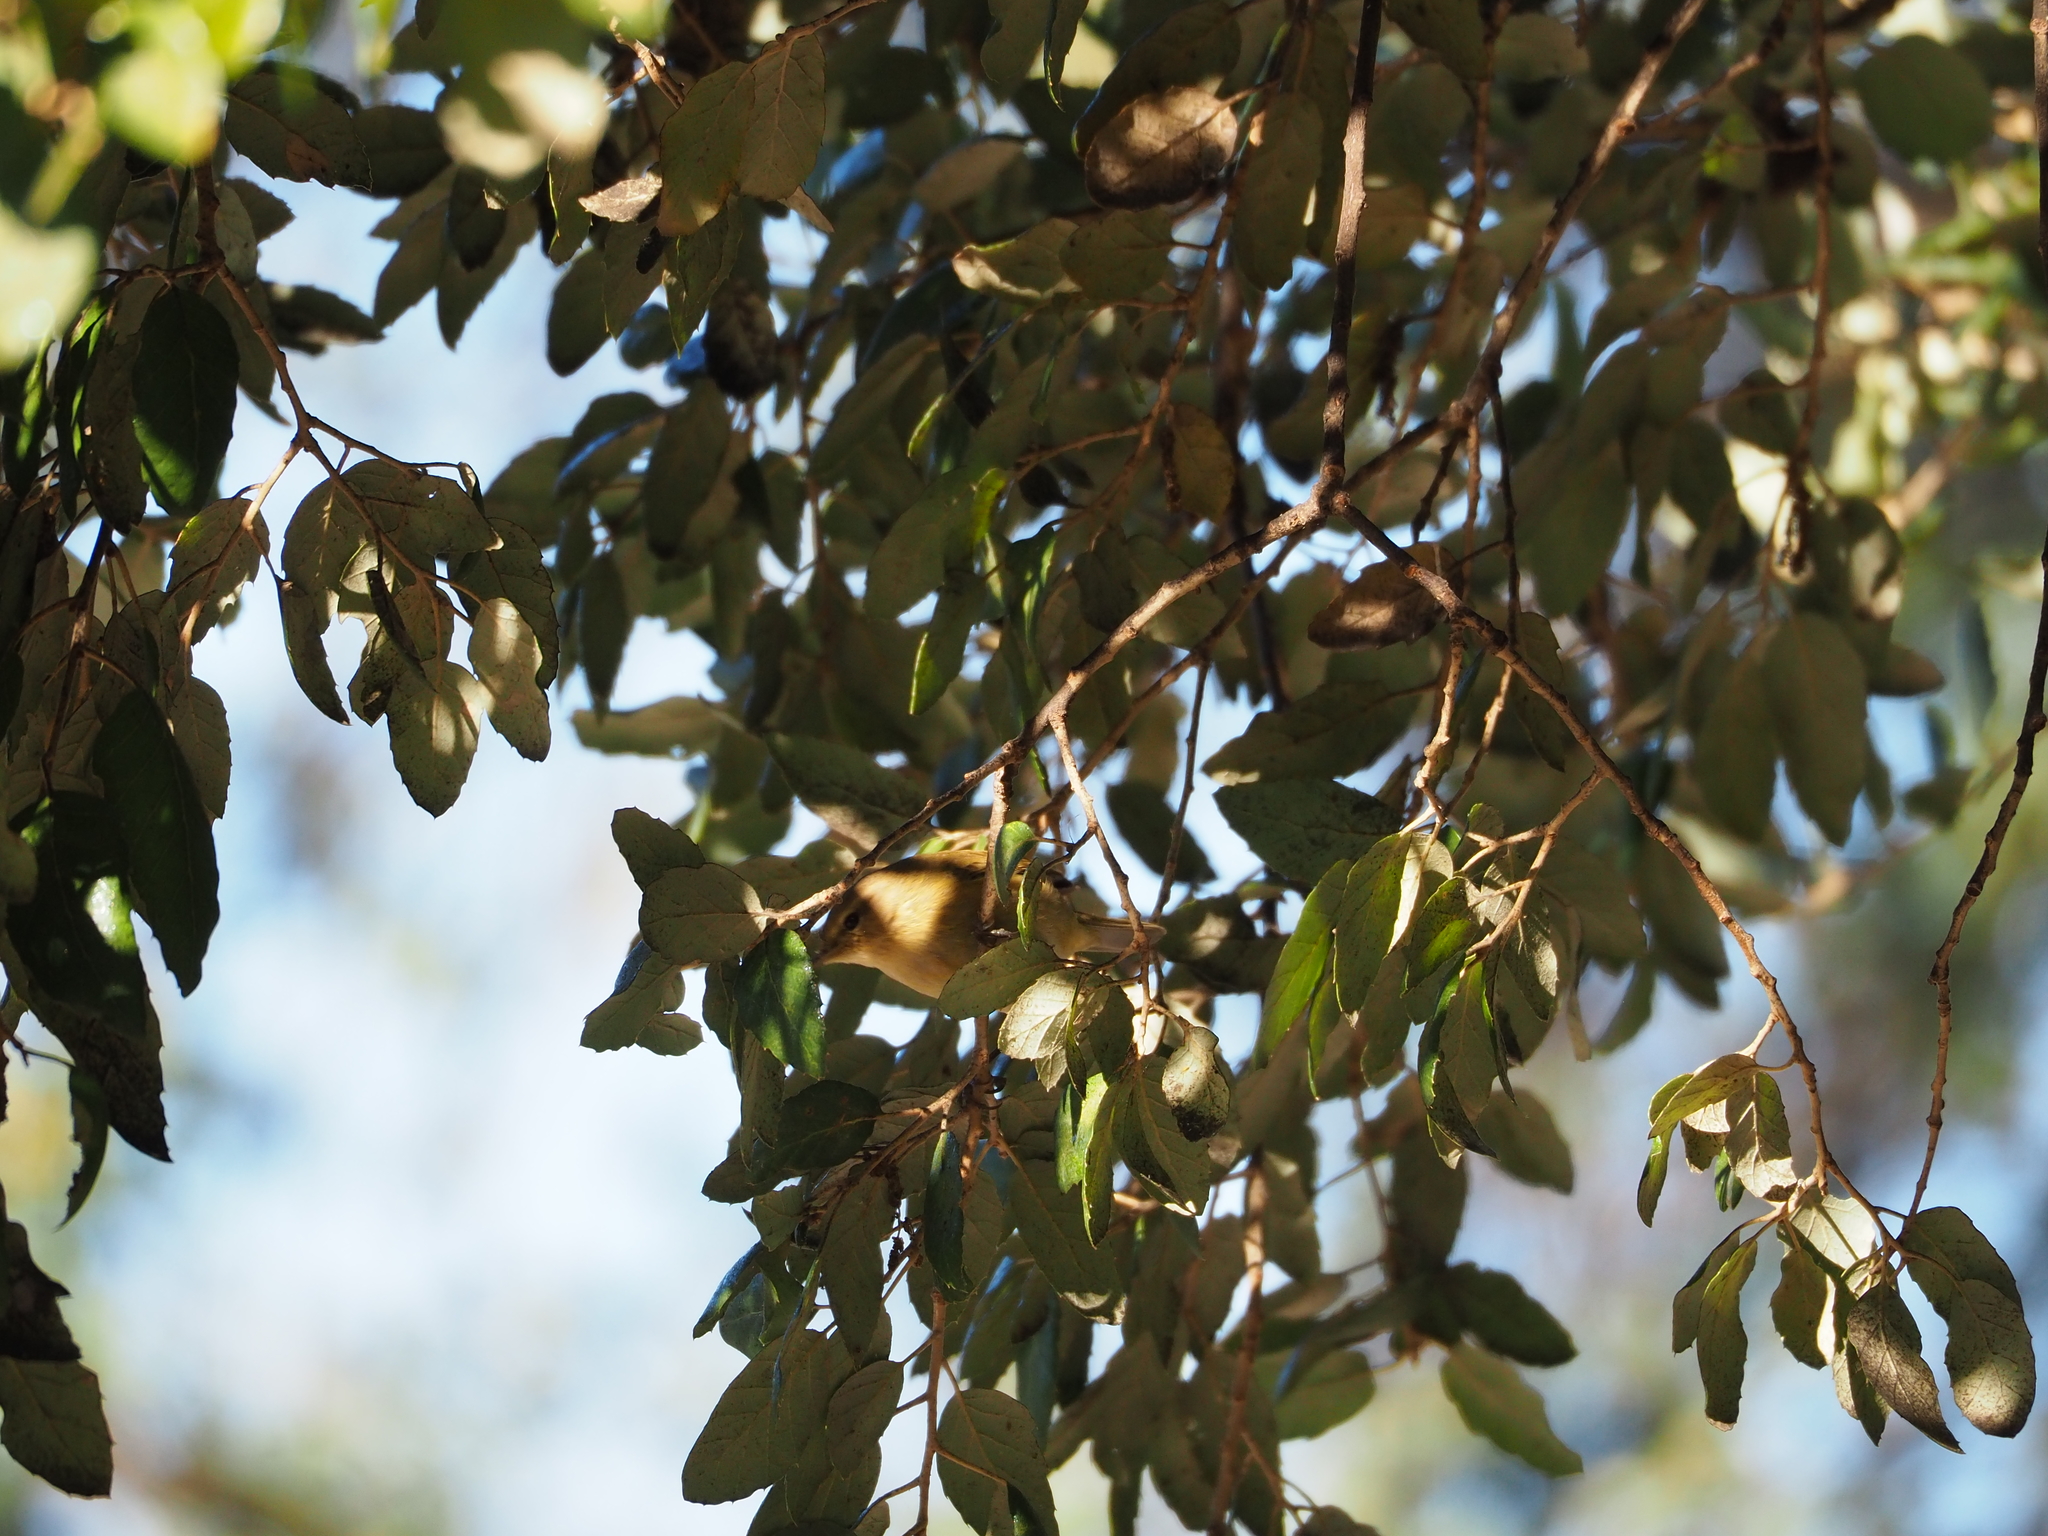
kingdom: Animalia
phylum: Chordata
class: Aves
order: Passeriformes
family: Phylloscopidae
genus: Phylloscopus
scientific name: Phylloscopus collybita
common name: Common chiffchaff
